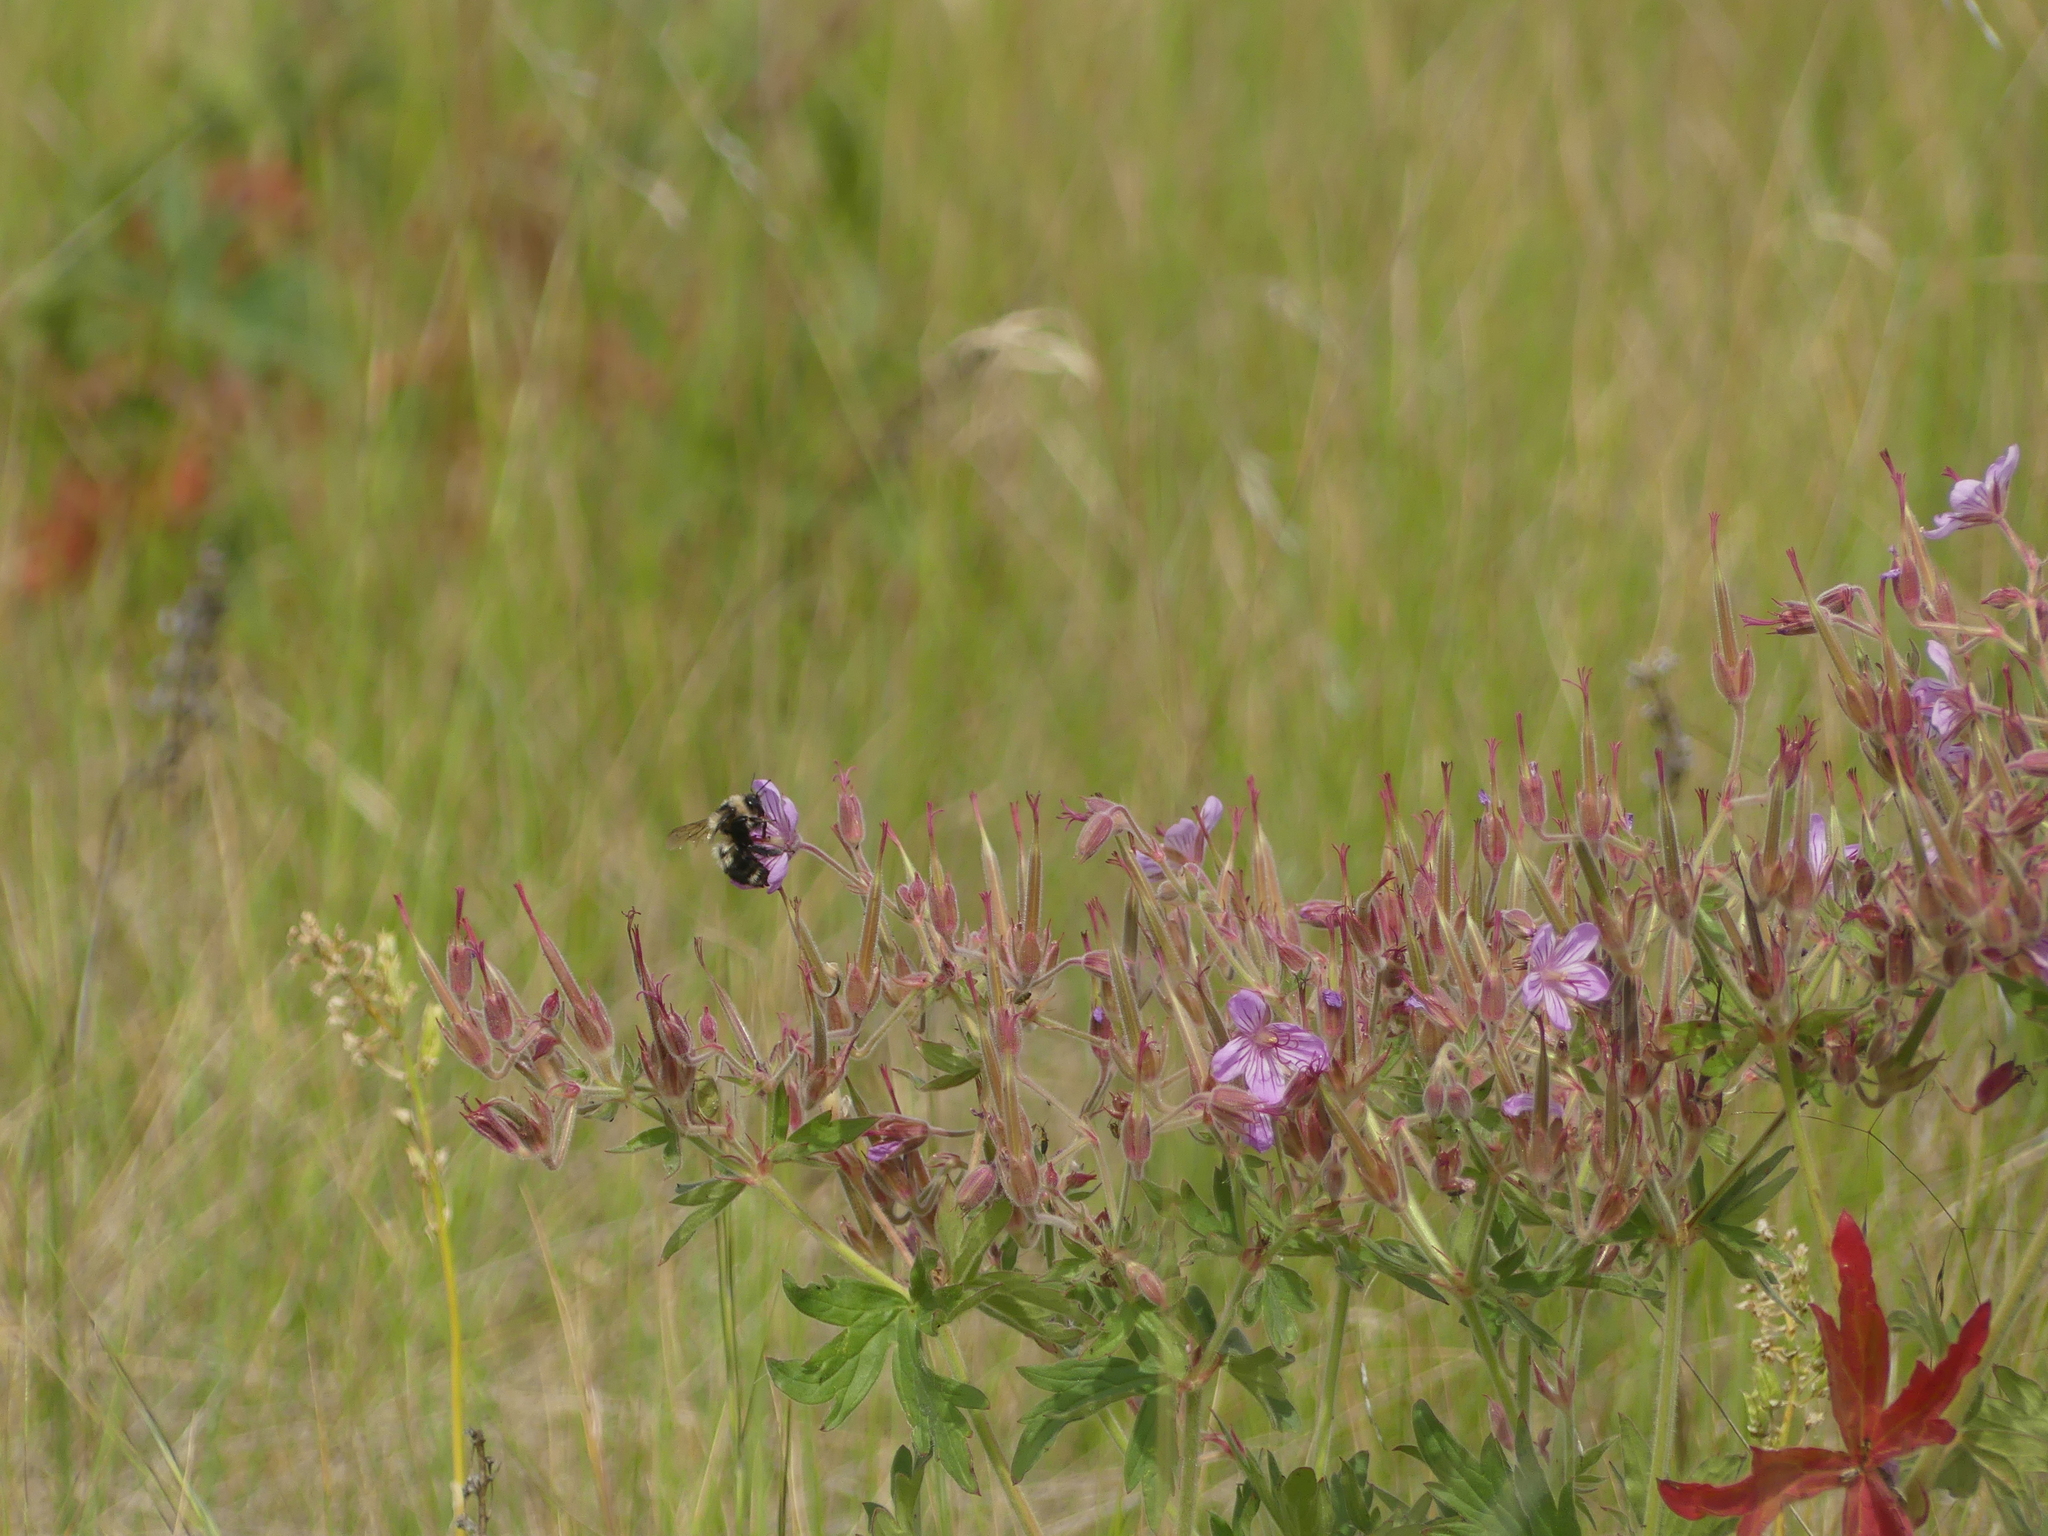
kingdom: Animalia
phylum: Arthropoda
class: Insecta
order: Hymenoptera
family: Apidae
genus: Bombus
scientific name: Bombus rufocinctus
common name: Red-belted bumble bee
